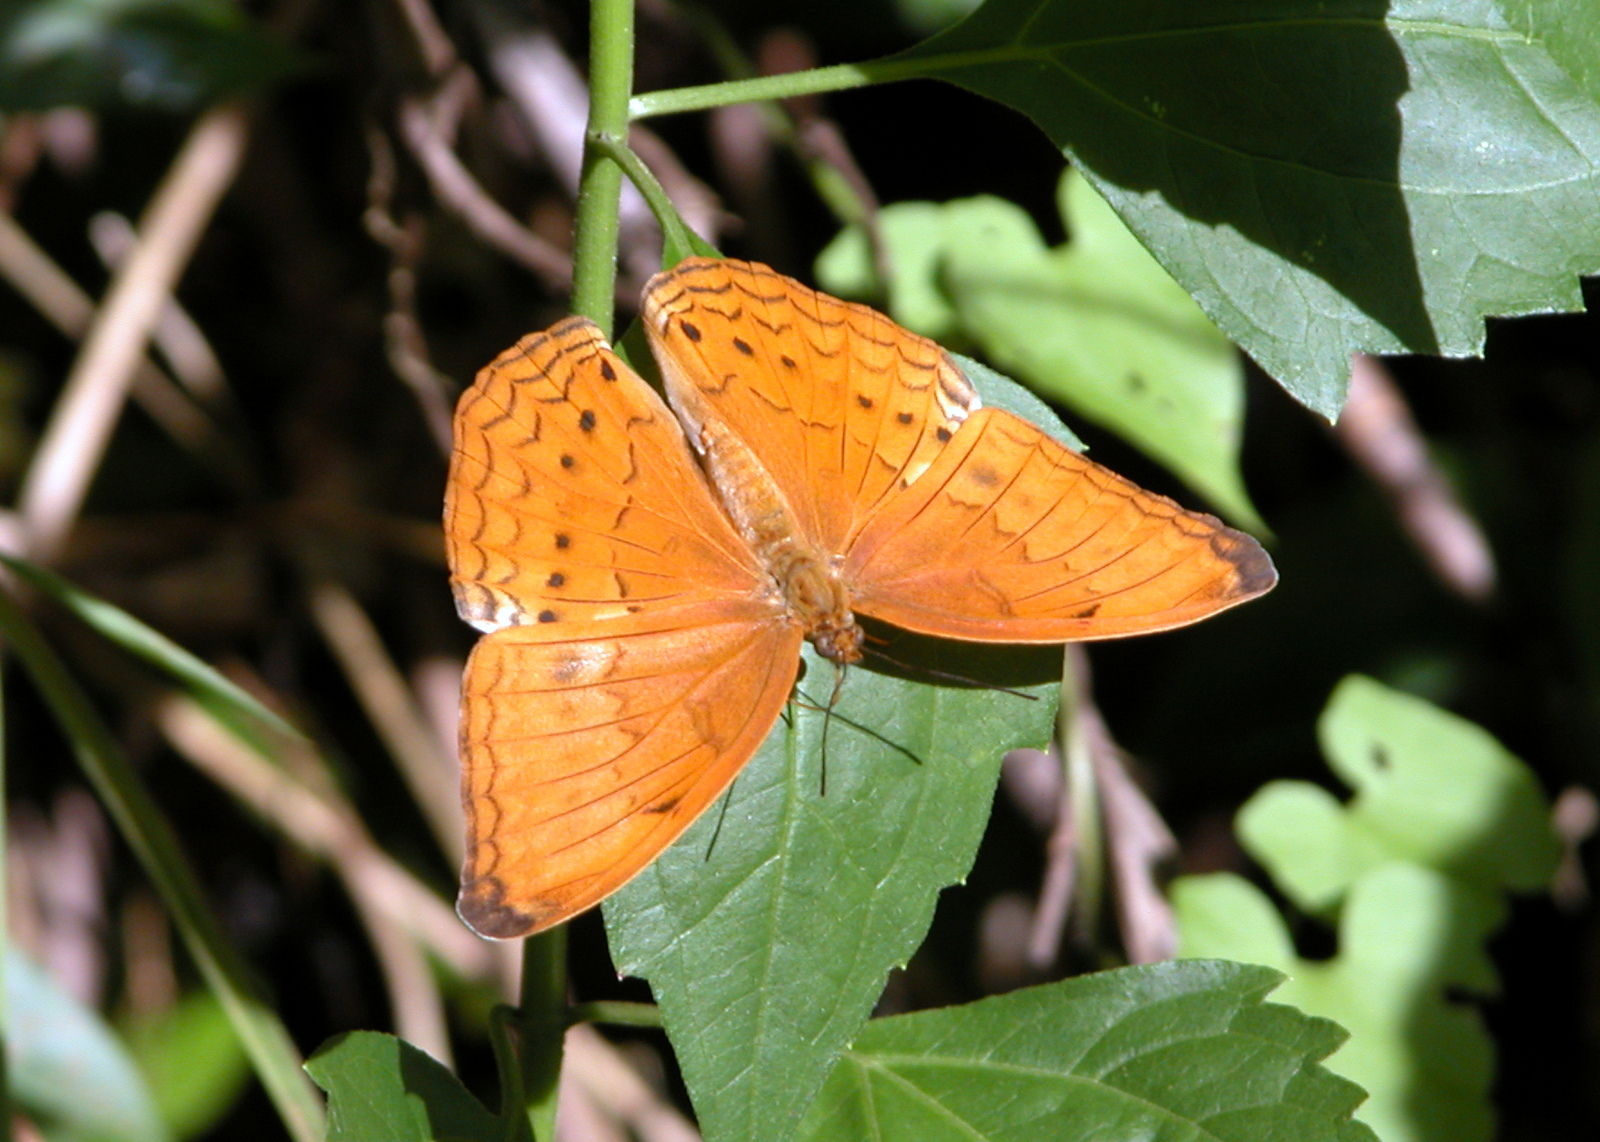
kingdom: Animalia
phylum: Arthropoda
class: Insecta
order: Lepidoptera
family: Nymphalidae
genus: Cirrochroa
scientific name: Cirrochroa aoris
